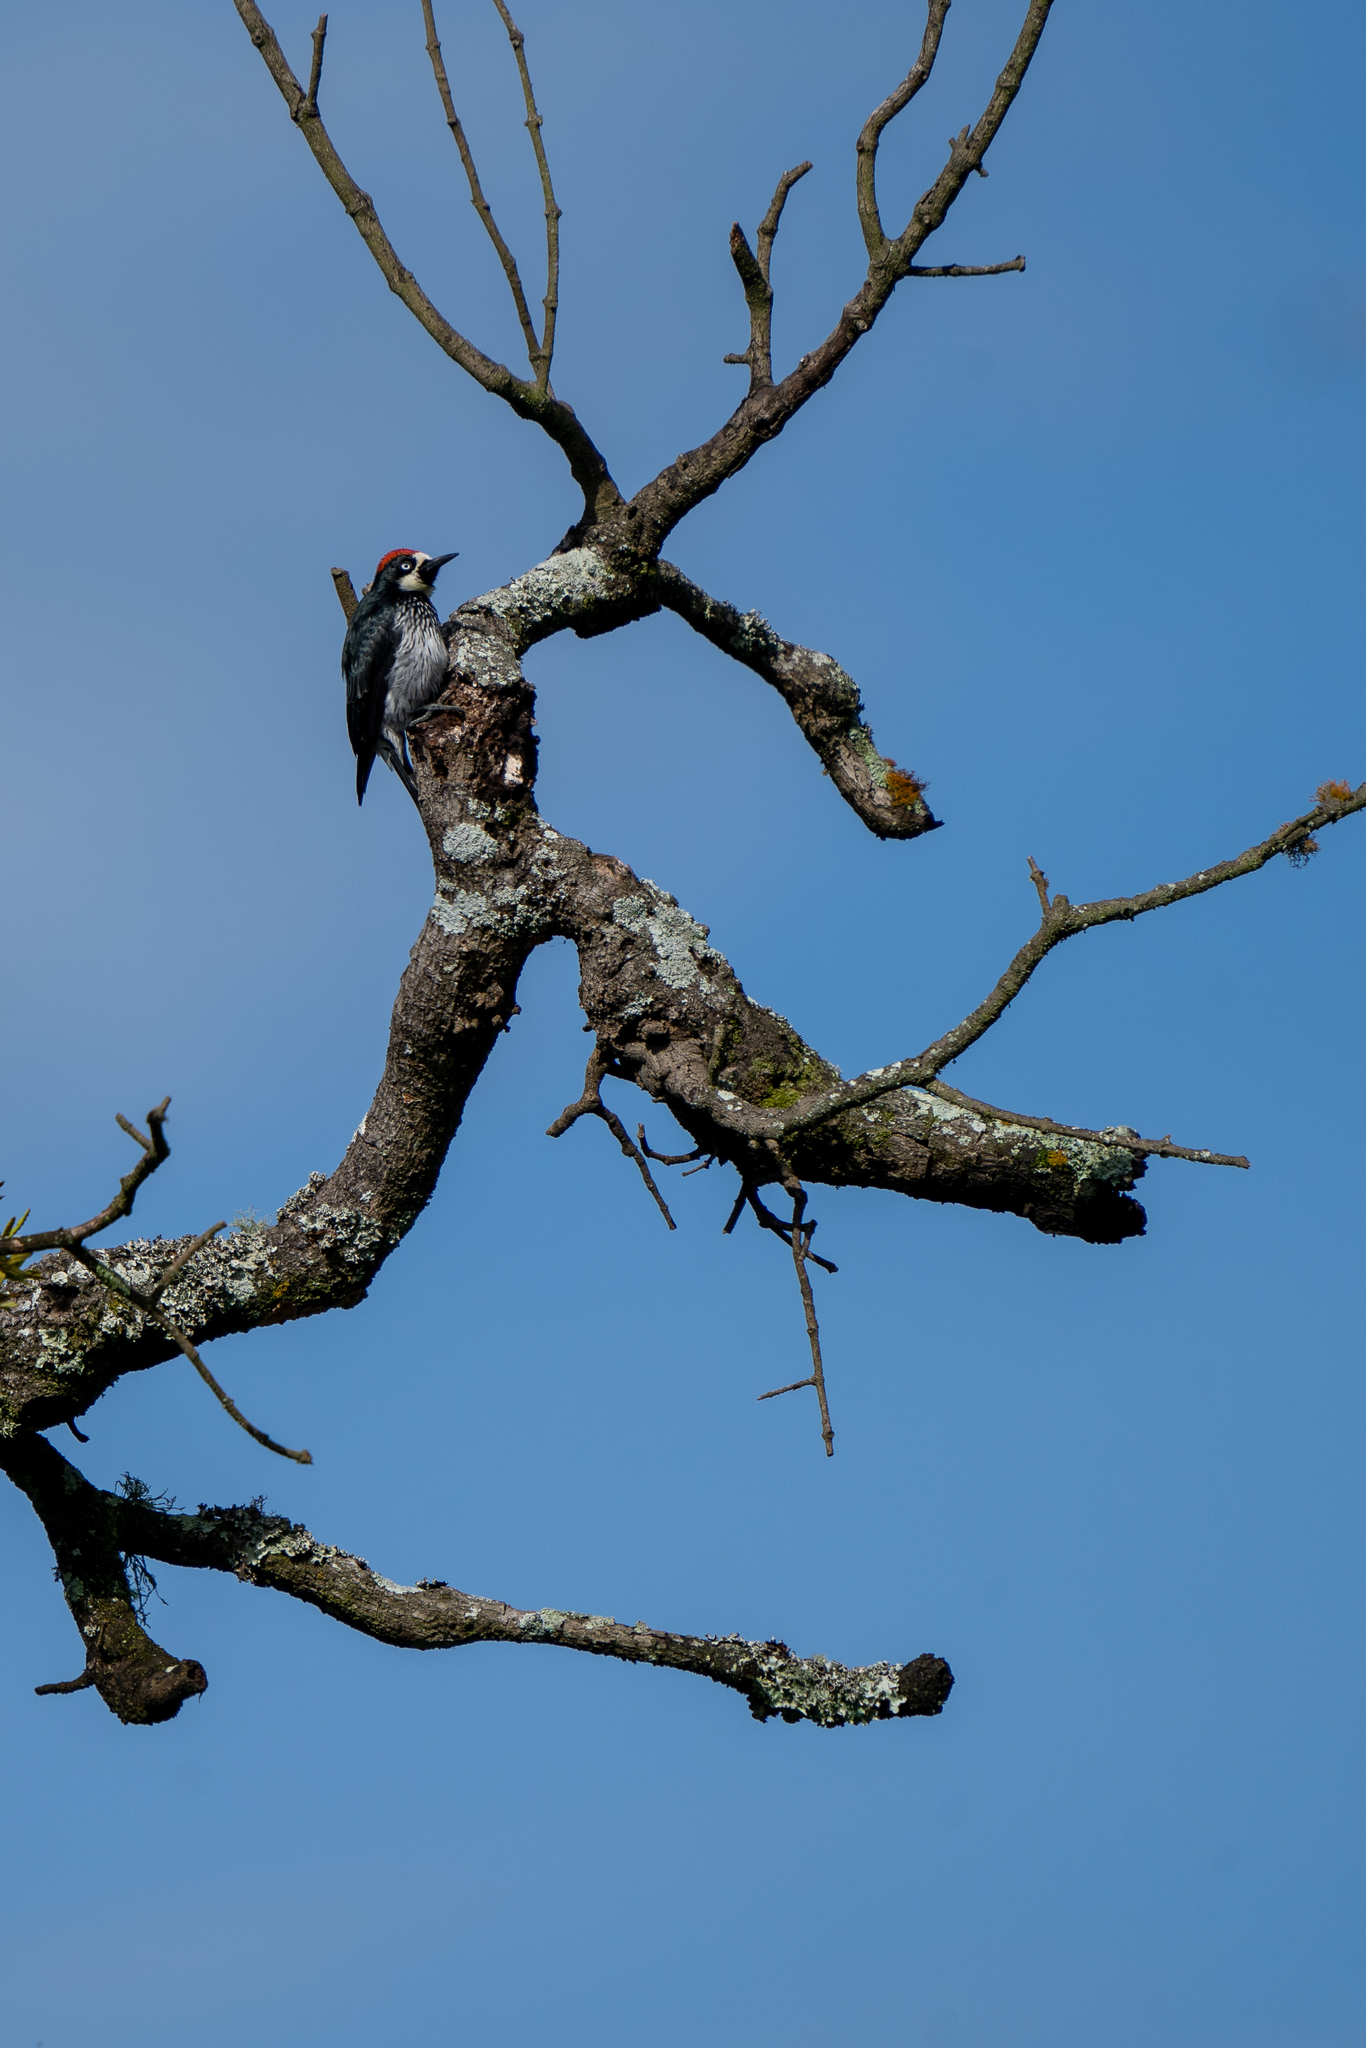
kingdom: Animalia
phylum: Chordata
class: Aves
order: Piciformes
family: Picidae
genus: Melanerpes
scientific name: Melanerpes formicivorus
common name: Acorn woodpecker
